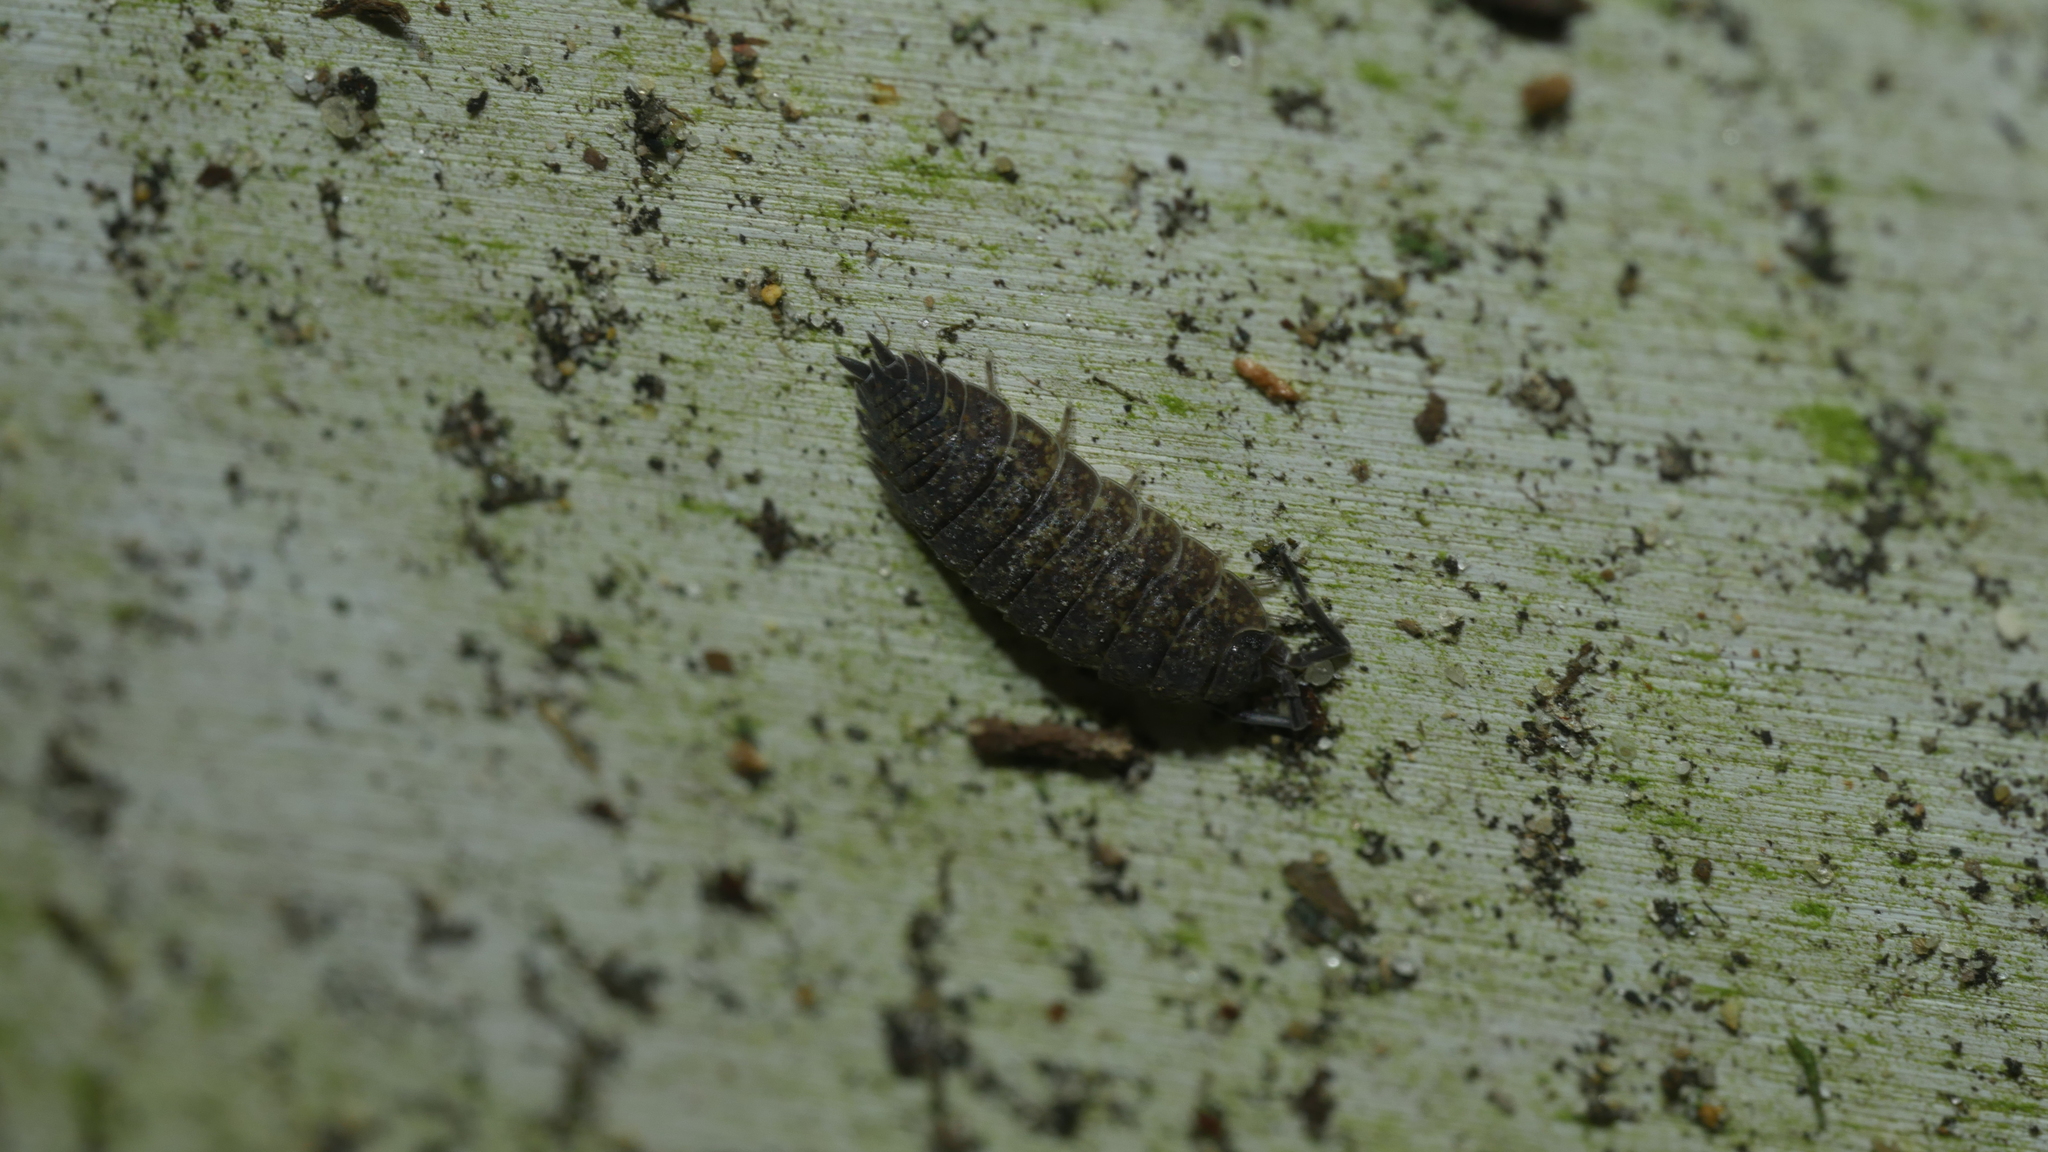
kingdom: Animalia
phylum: Arthropoda
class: Malacostraca
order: Isopoda
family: Porcellionidae
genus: Porcellio
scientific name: Porcellio scaber
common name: Common rough woodlouse
